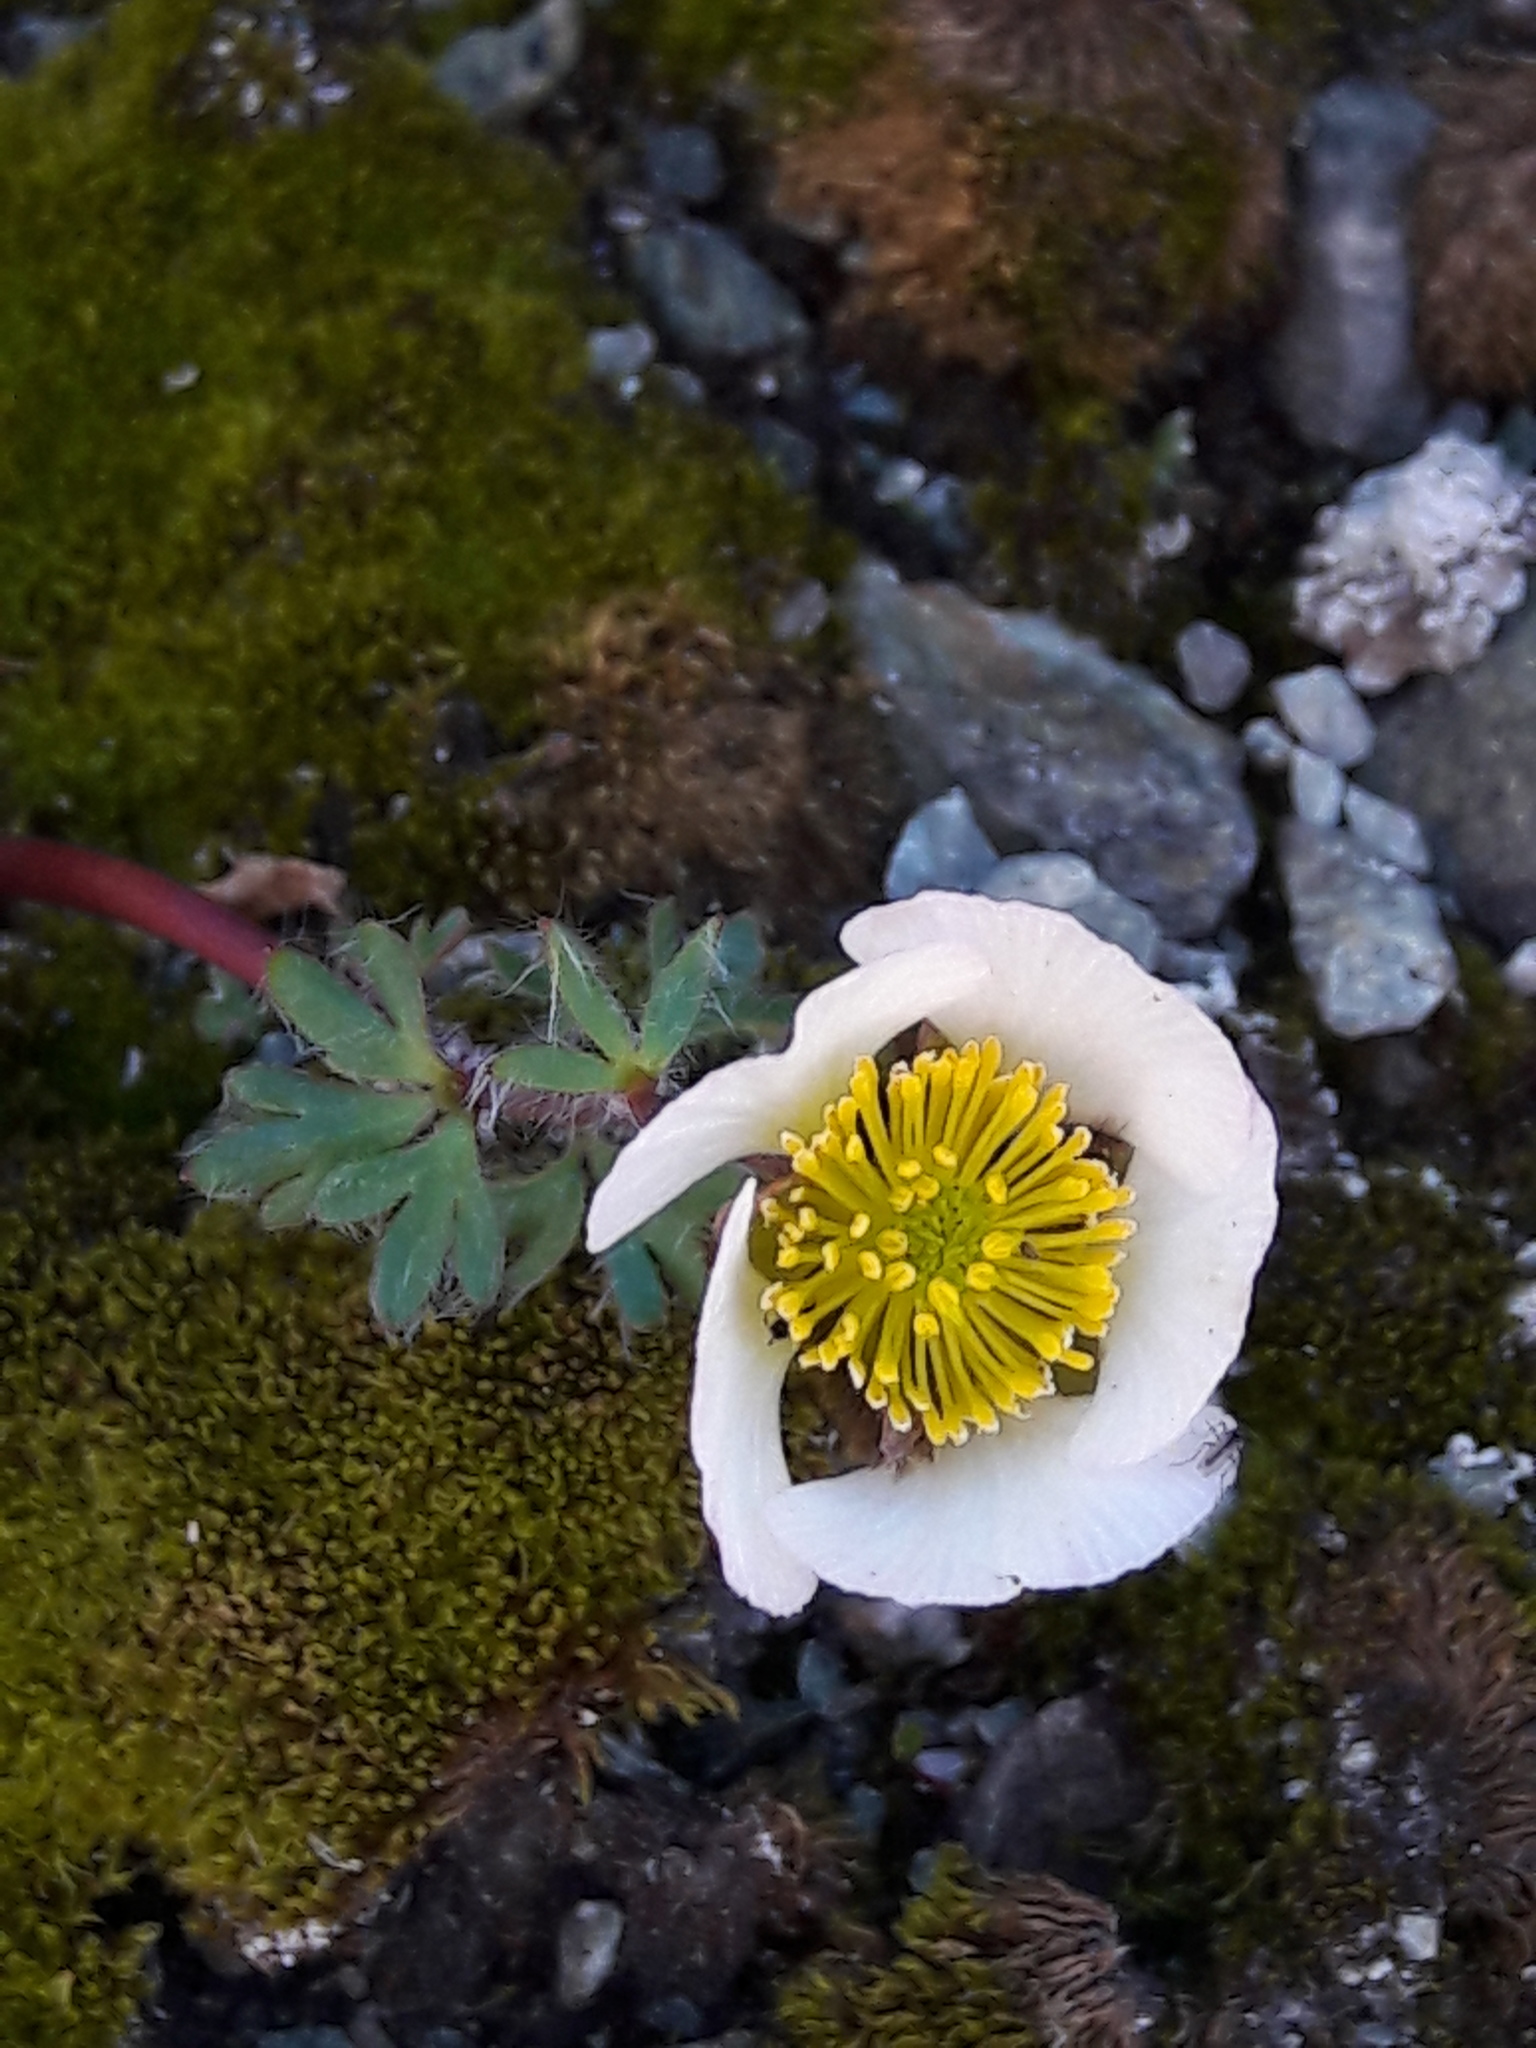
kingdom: Plantae
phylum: Tracheophyta
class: Magnoliopsida
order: Ranunculales
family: Ranunculaceae
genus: Ranunculus
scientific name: Ranunculus glacialis
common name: Glacier buttercup
